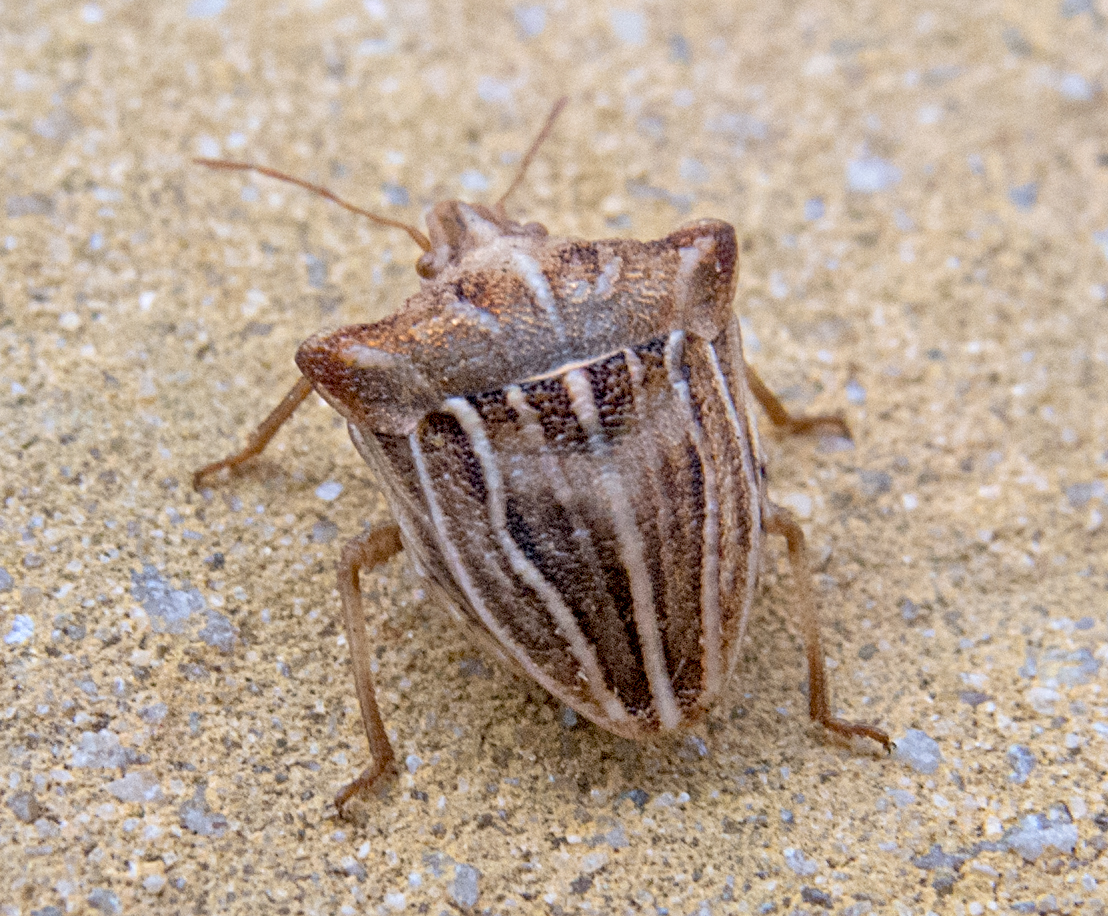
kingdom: Animalia
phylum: Arthropoda
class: Insecta
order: Hemiptera
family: Pentatomidae
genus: Ancyrosoma
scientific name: Ancyrosoma leucogrammes
